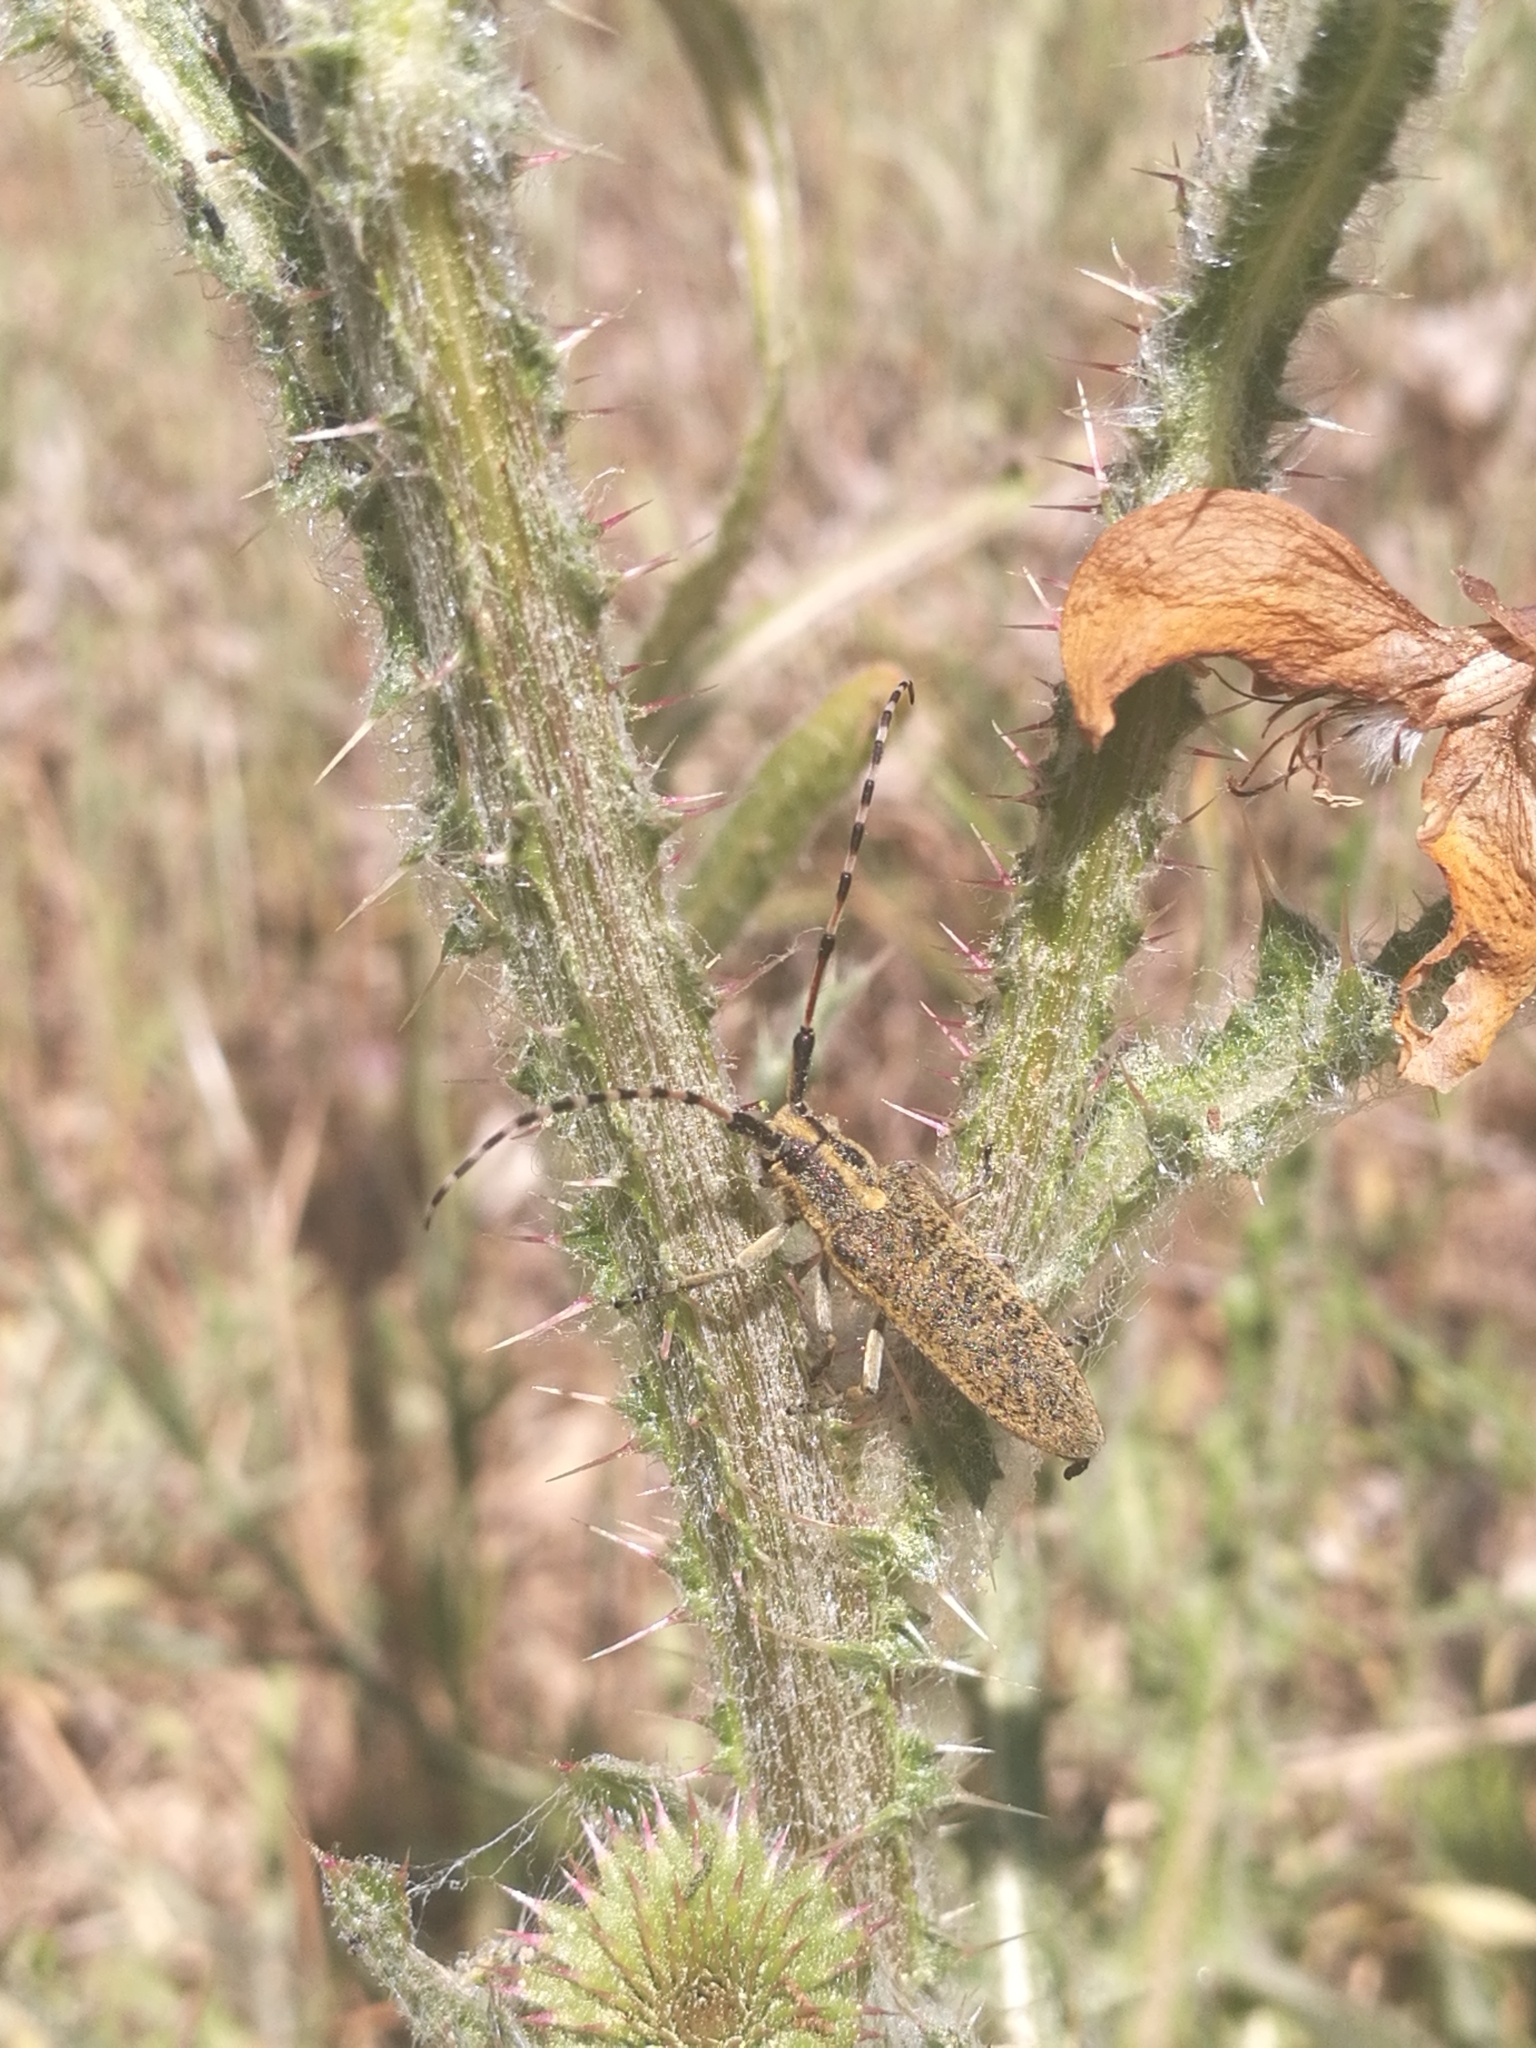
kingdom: Animalia
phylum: Arthropoda
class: Insecta
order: Coleoptera
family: Cerambycidae
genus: Agapanthia
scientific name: Agapanthia dahlii
